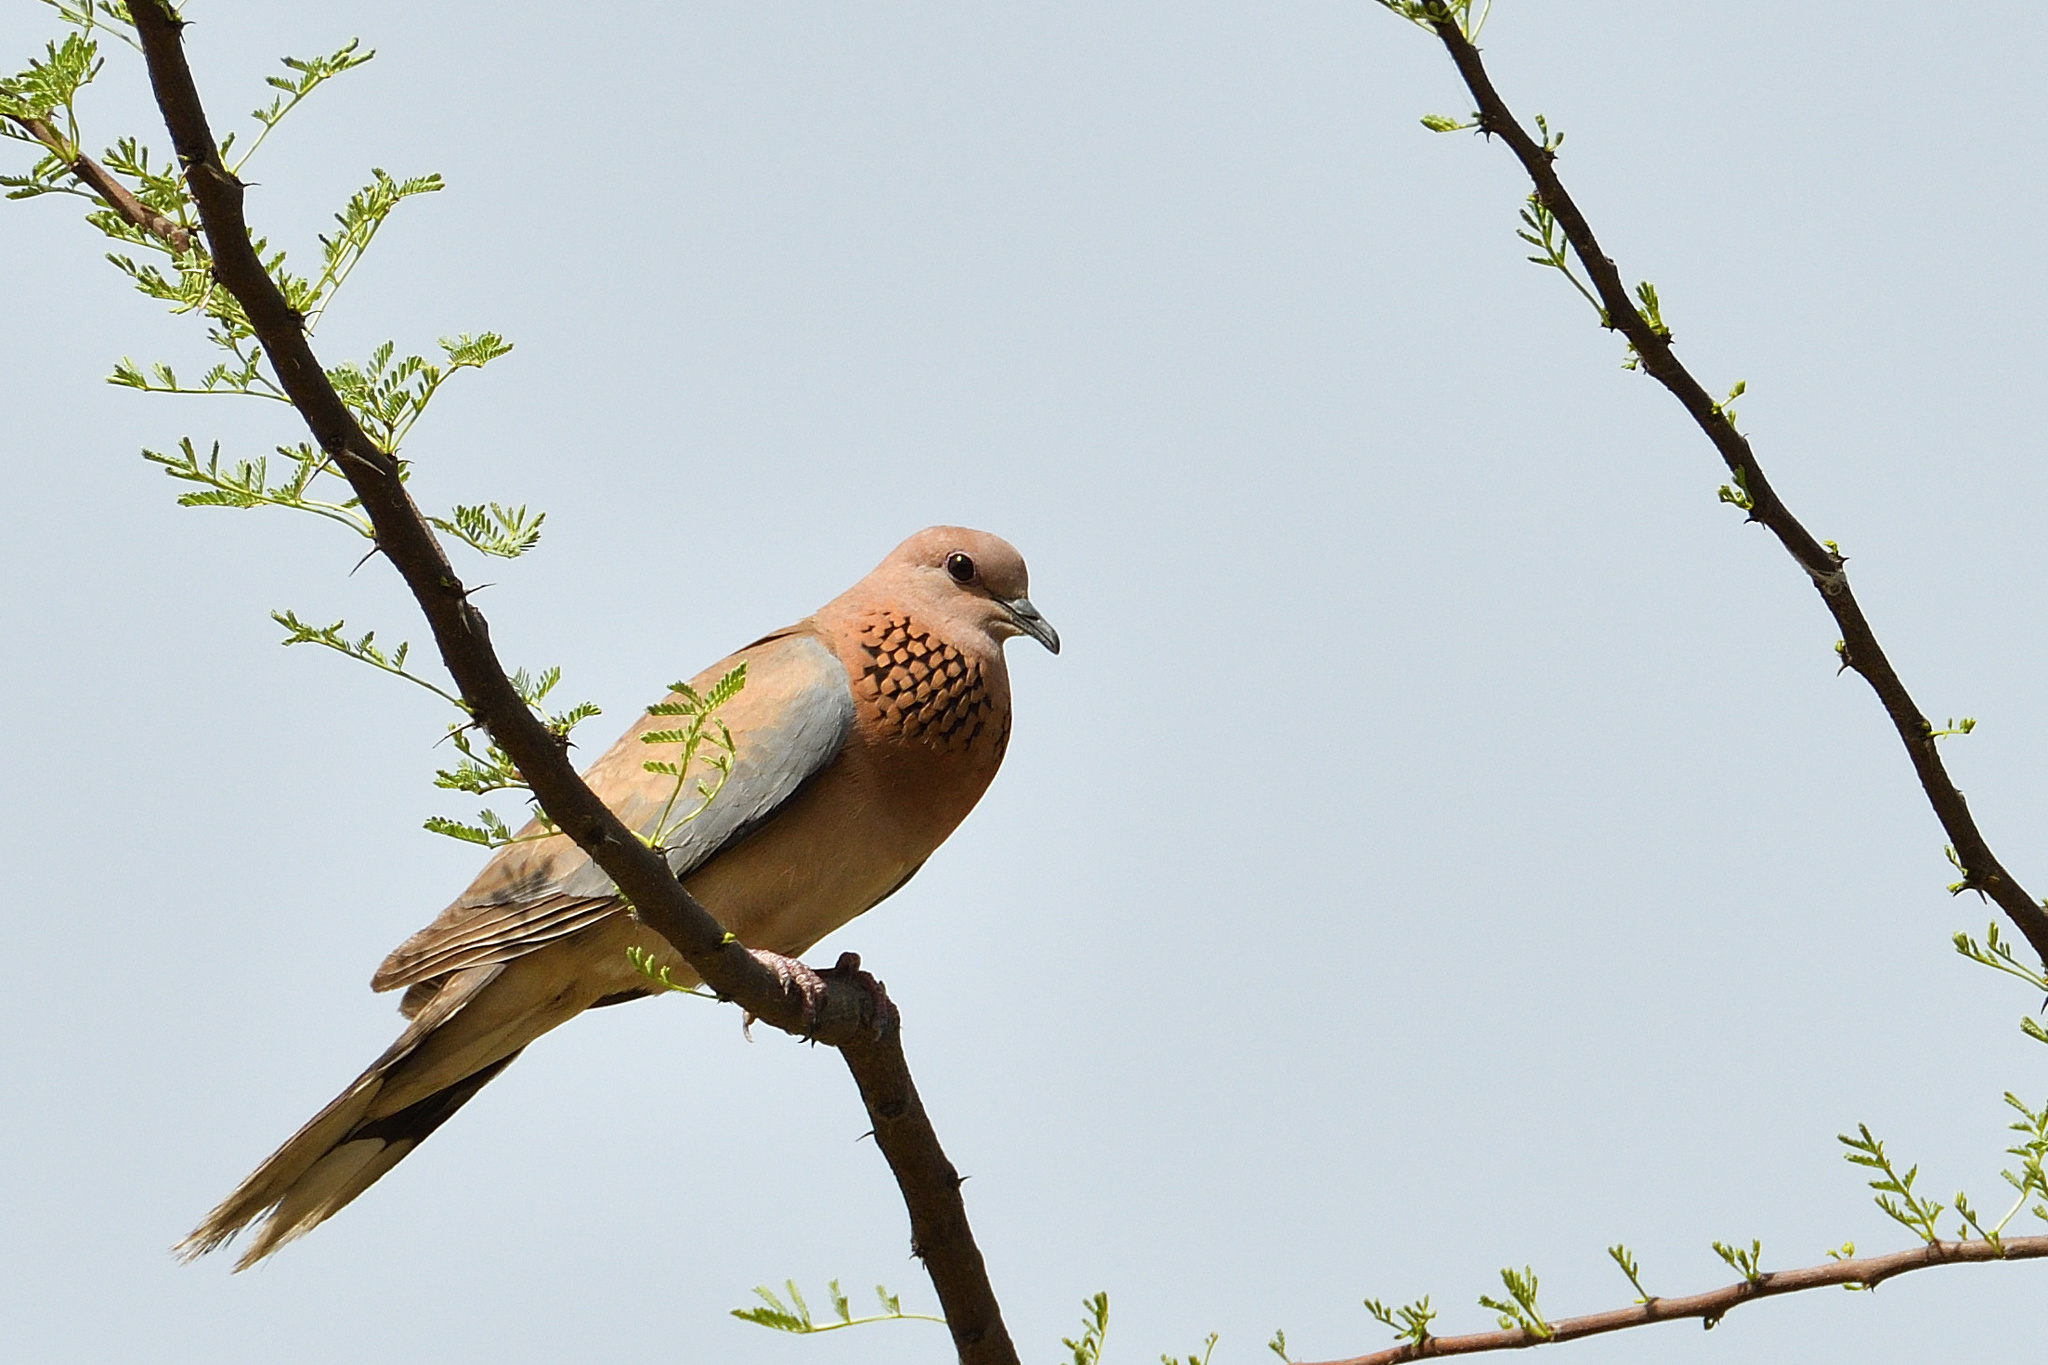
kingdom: Animalia
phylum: Chordata
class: Aves
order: Columbiformes
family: Columbidae
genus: Spilopelia
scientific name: Spilopelia senegalensis
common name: Laughing dove
